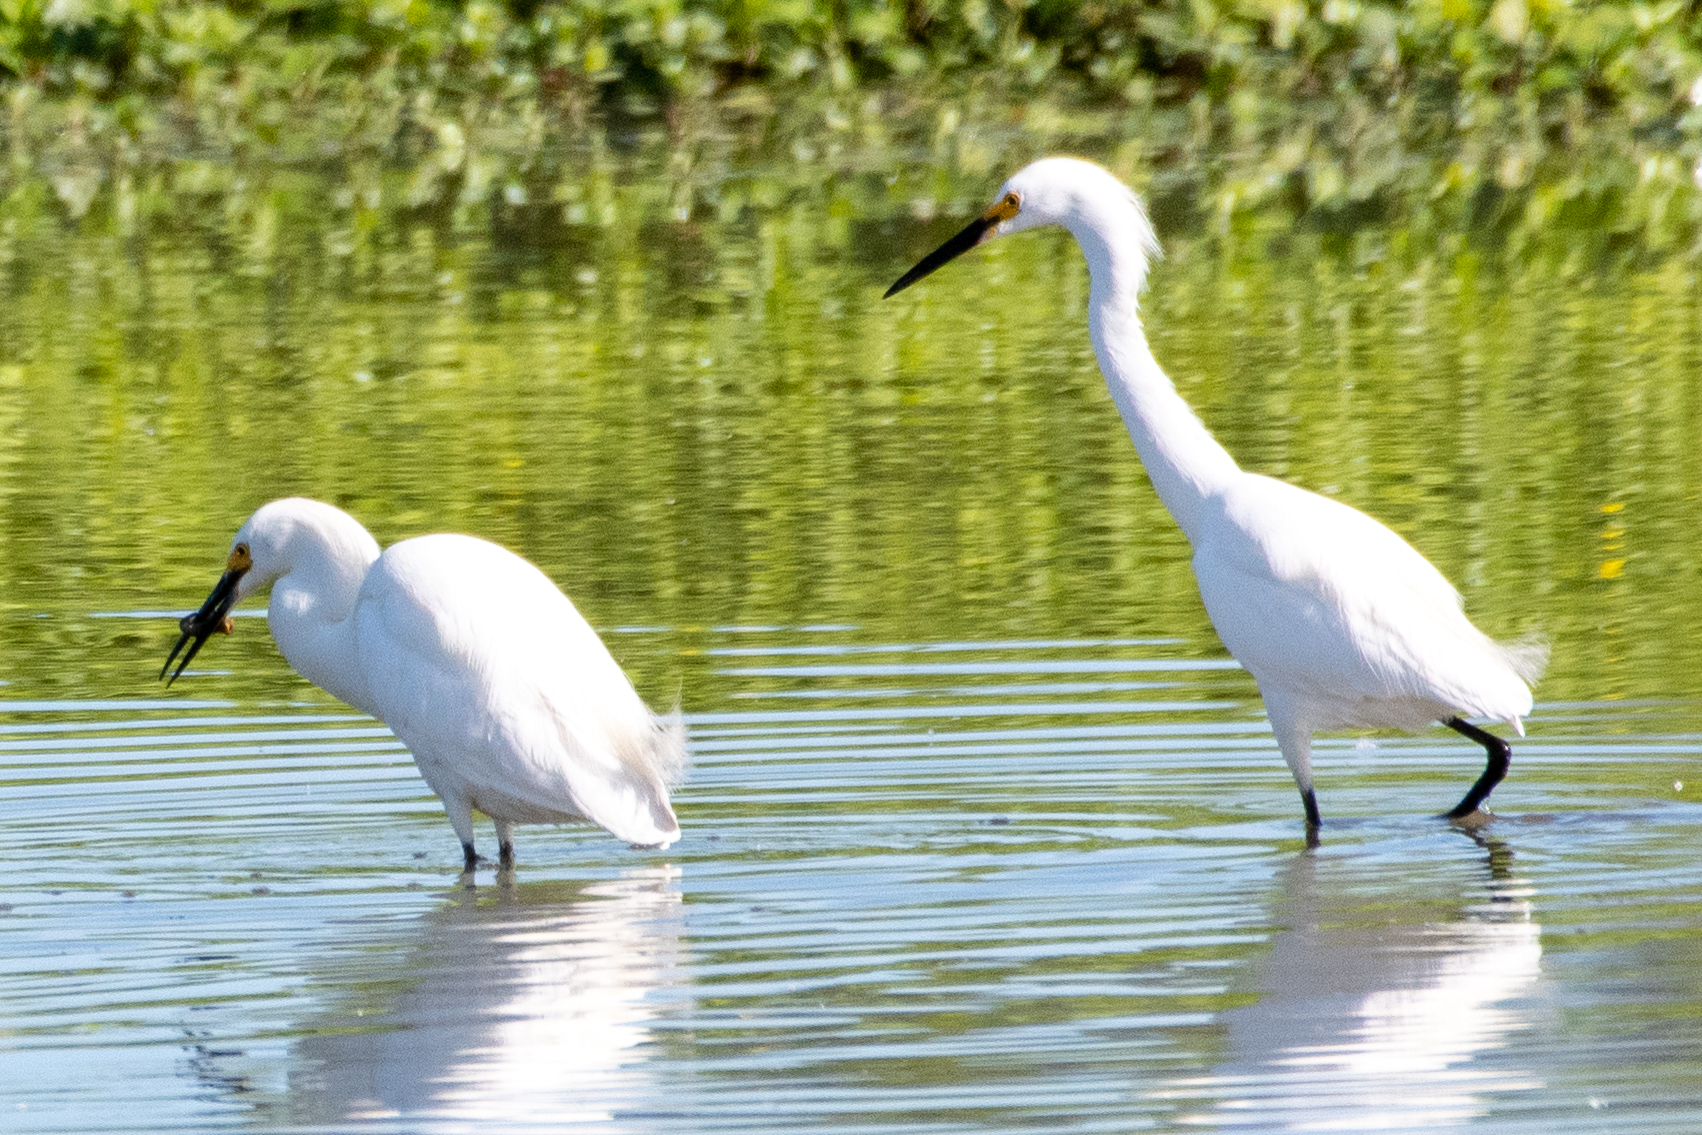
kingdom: Animalia
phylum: Chordata
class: Aves
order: Pelecaniformes
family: Ardeidae
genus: Egretta
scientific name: Egretta thula
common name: Snowy egret
